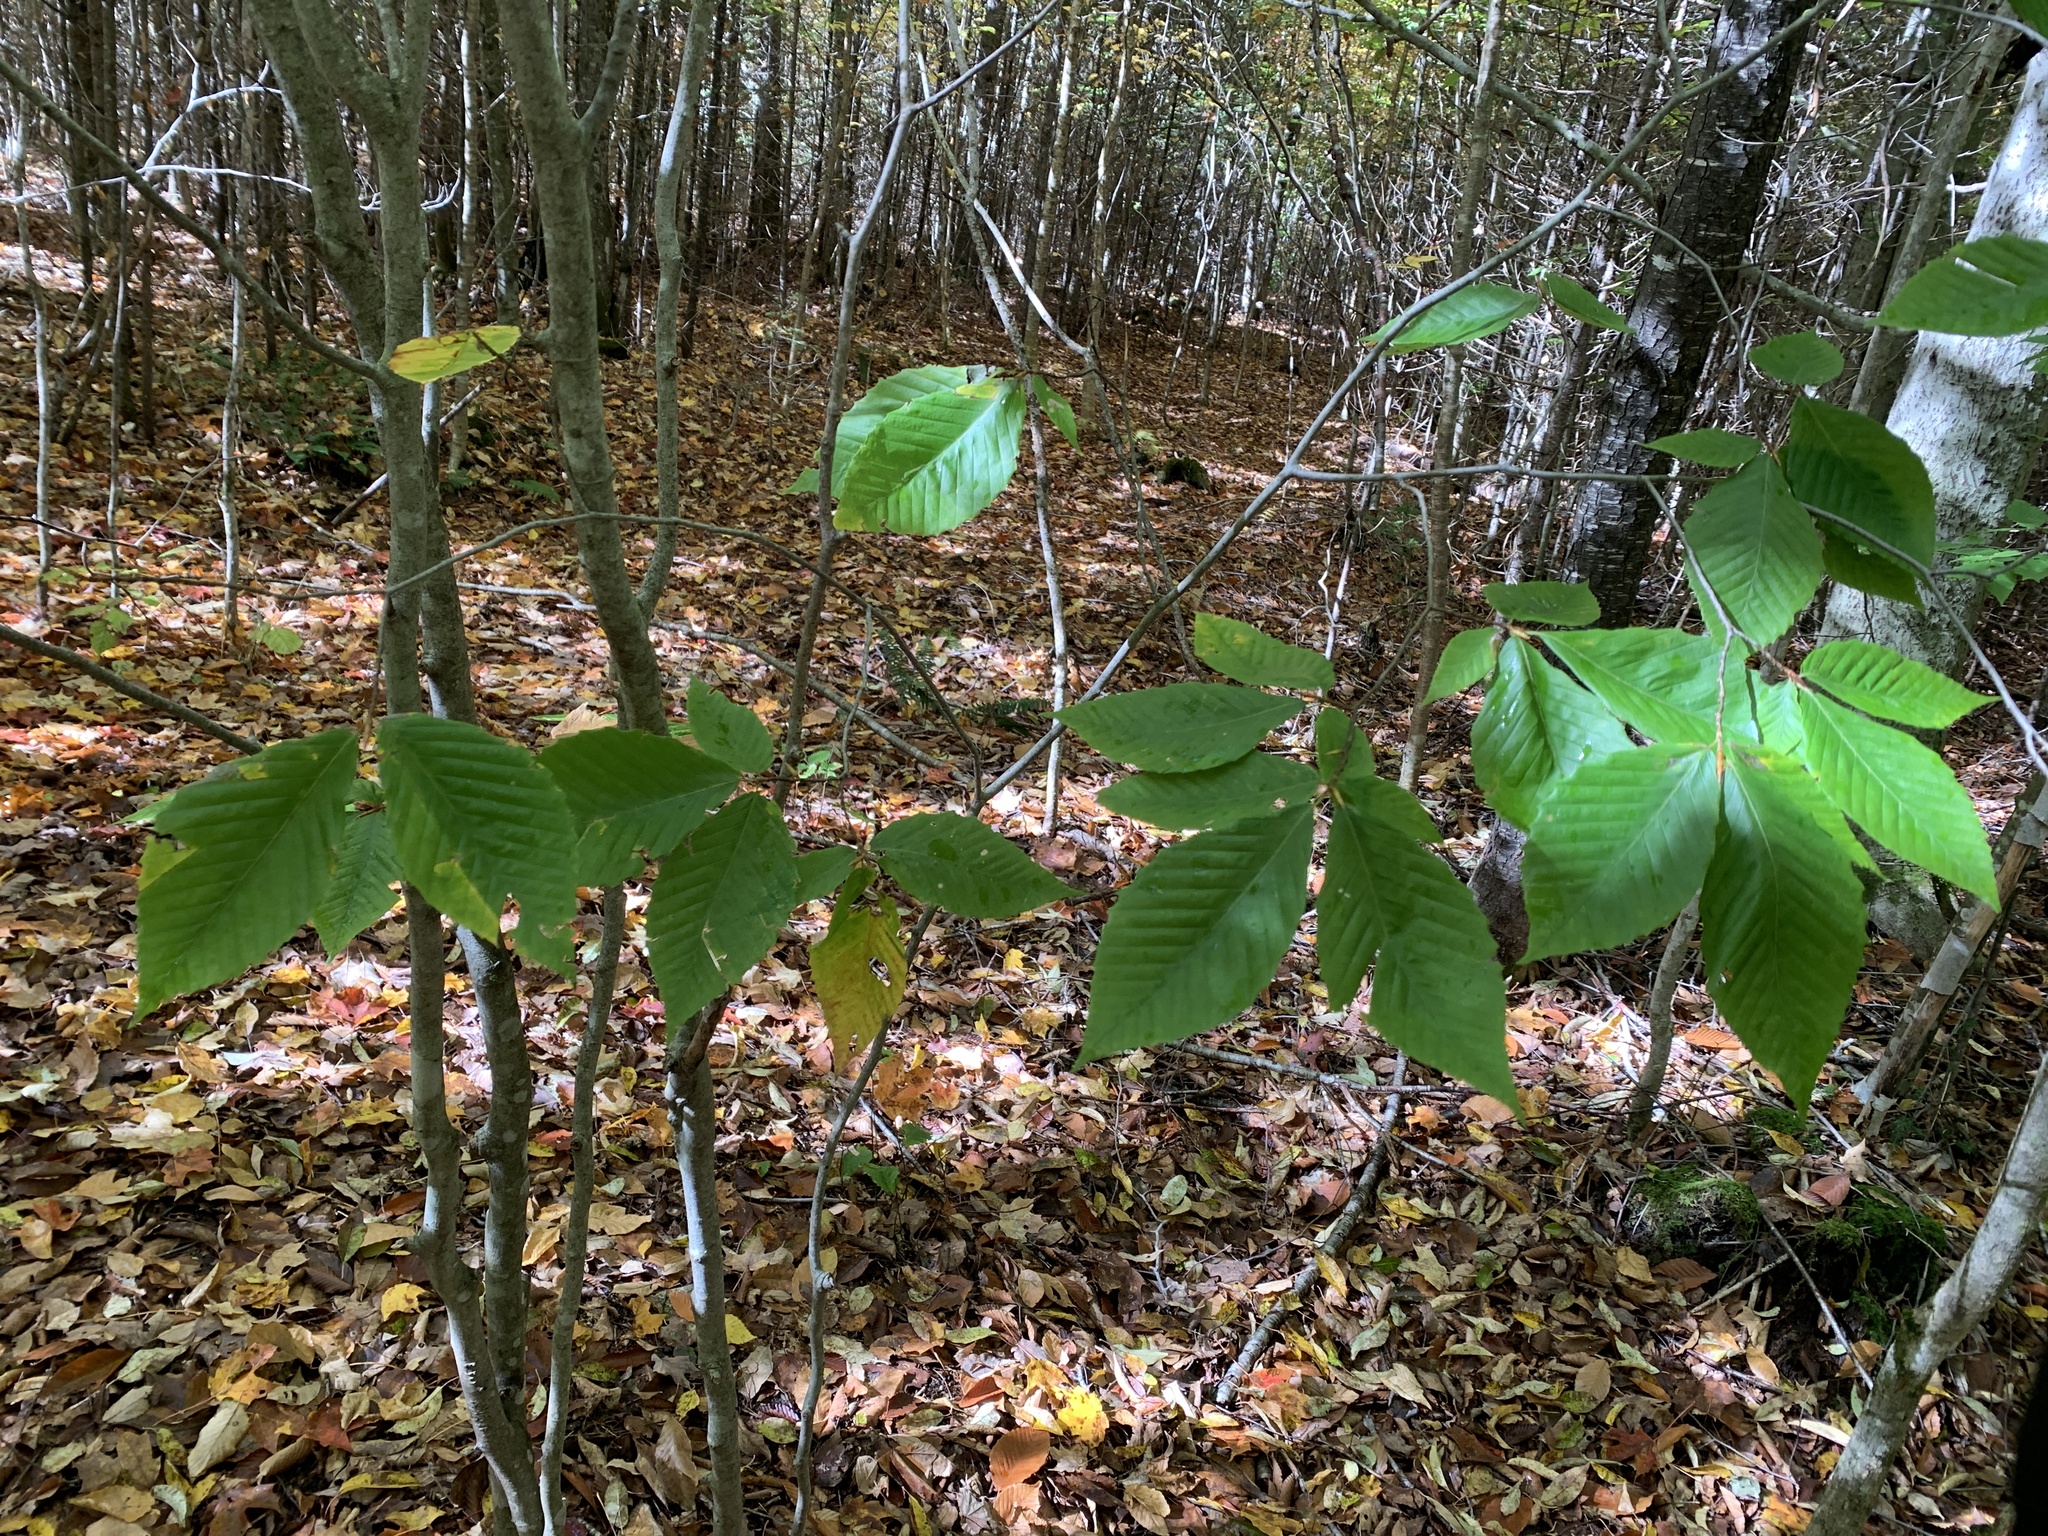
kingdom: Plantae
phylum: Tracheophyta
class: Magnoliopsida
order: Fagales
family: Fagaceae
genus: Fagus
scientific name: Fagus grandifolia
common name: American beech
